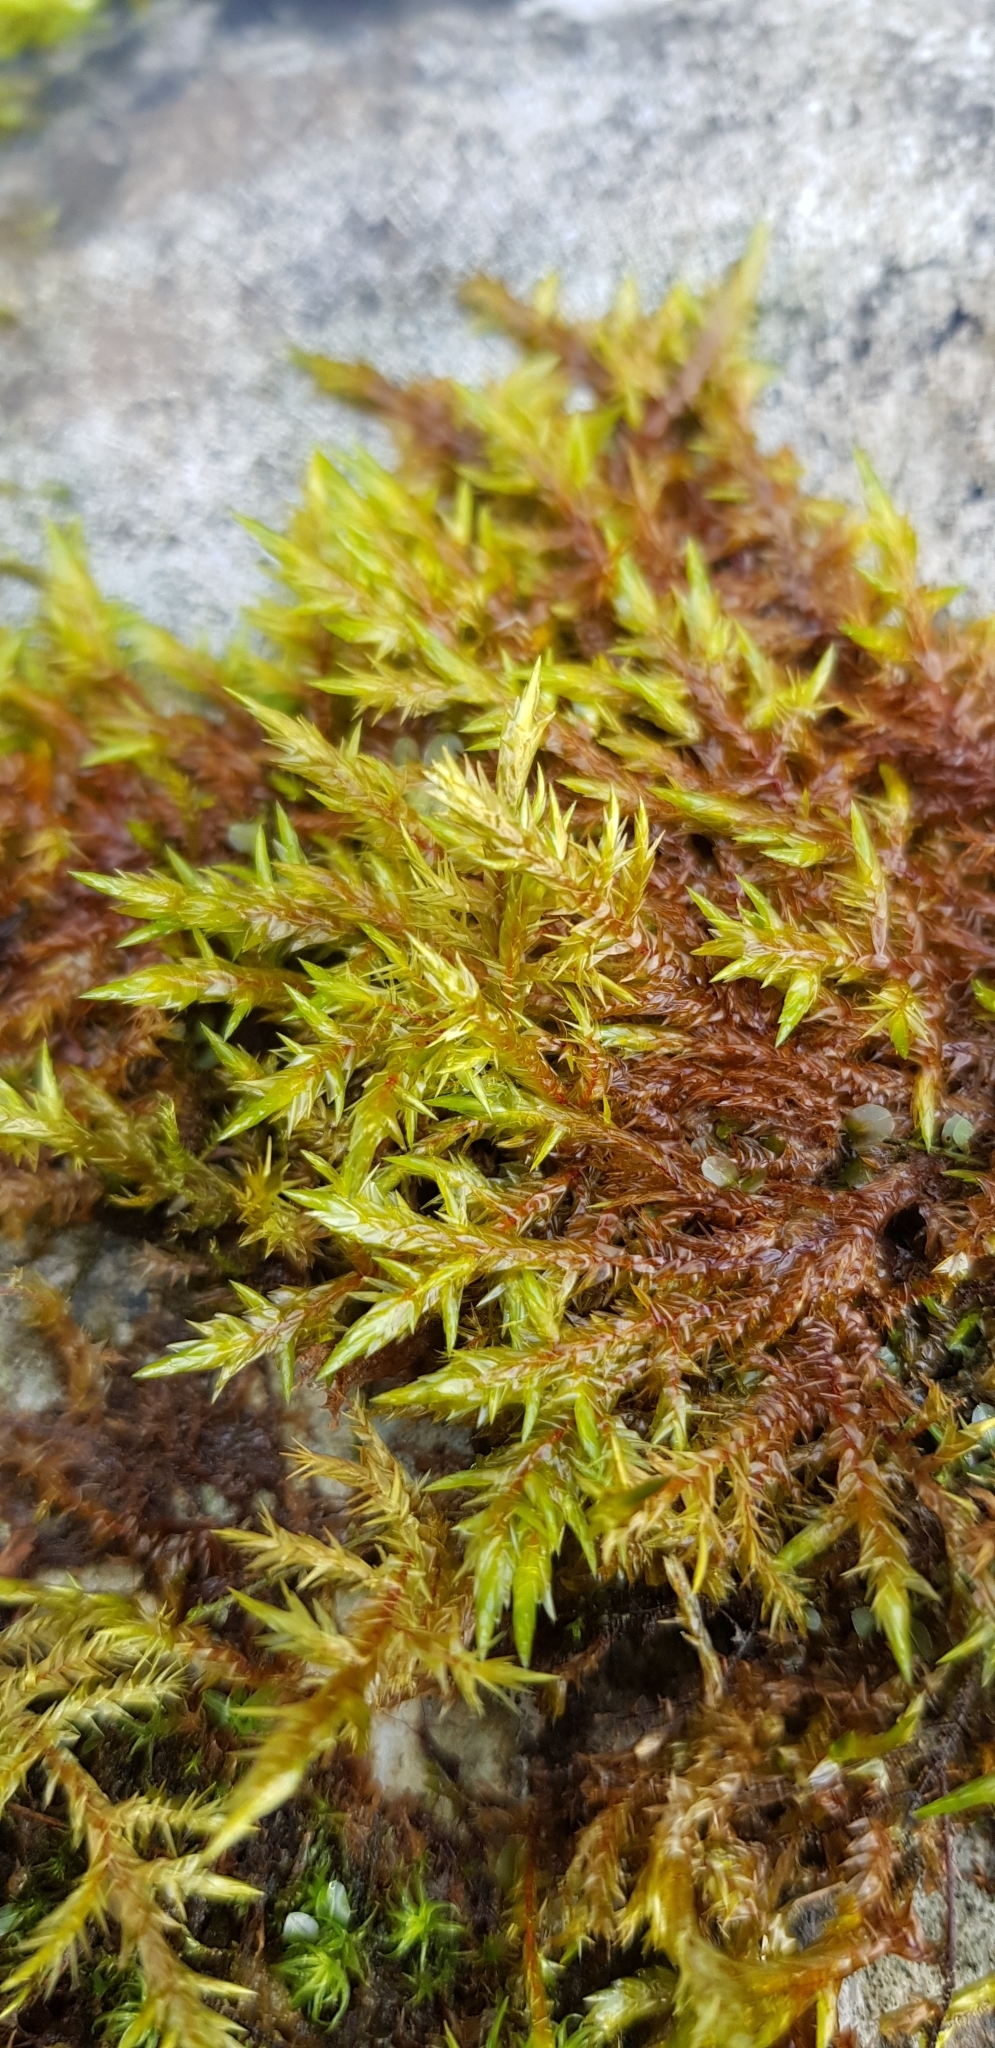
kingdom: Plantae
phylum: Bryophyta
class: Bryopsida
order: Hypnales
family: Pylaisiaceae
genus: Calliergonella
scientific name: Calliergonella cuspidata
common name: Common large wetland moss
